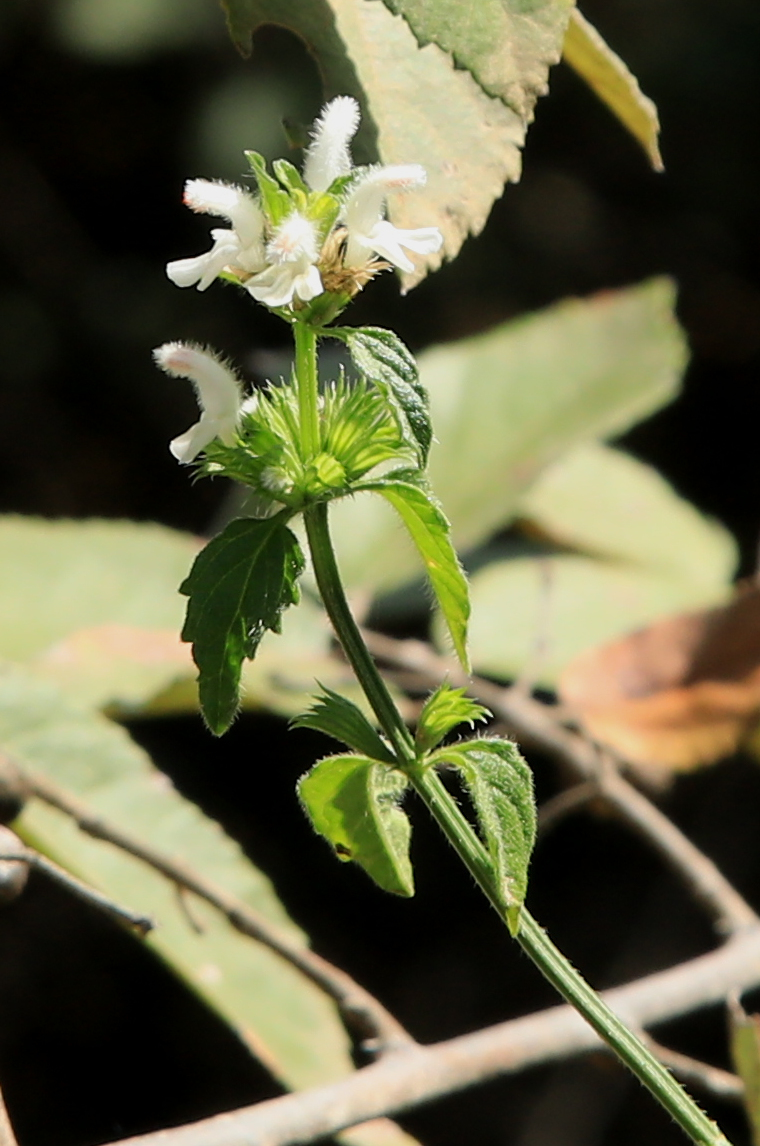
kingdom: Plantae
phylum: Tracheophyta
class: Magnoliopsida
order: Lamiales
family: Lamiaceae
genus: Leucas
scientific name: Leucas glabrata
